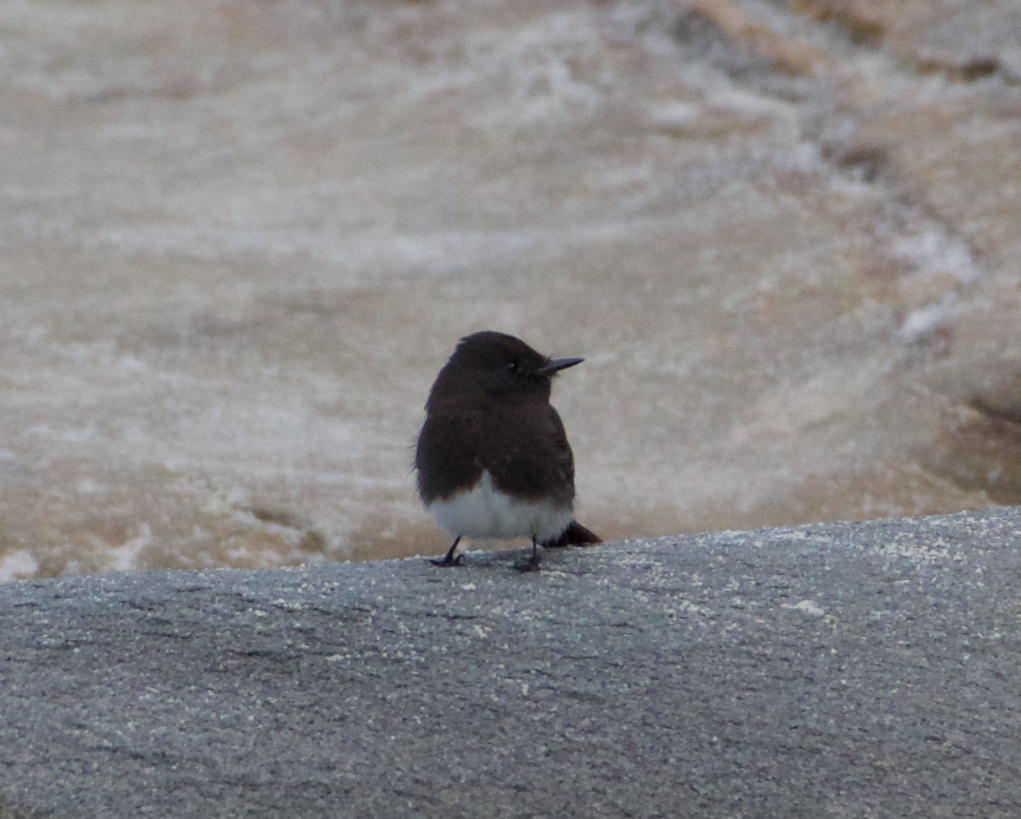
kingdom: Animalia
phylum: Chordata
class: Aves
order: Passeriformes
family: Tyrannidae
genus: Sayornis
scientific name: Sayornis nigricans
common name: Black phoebe
